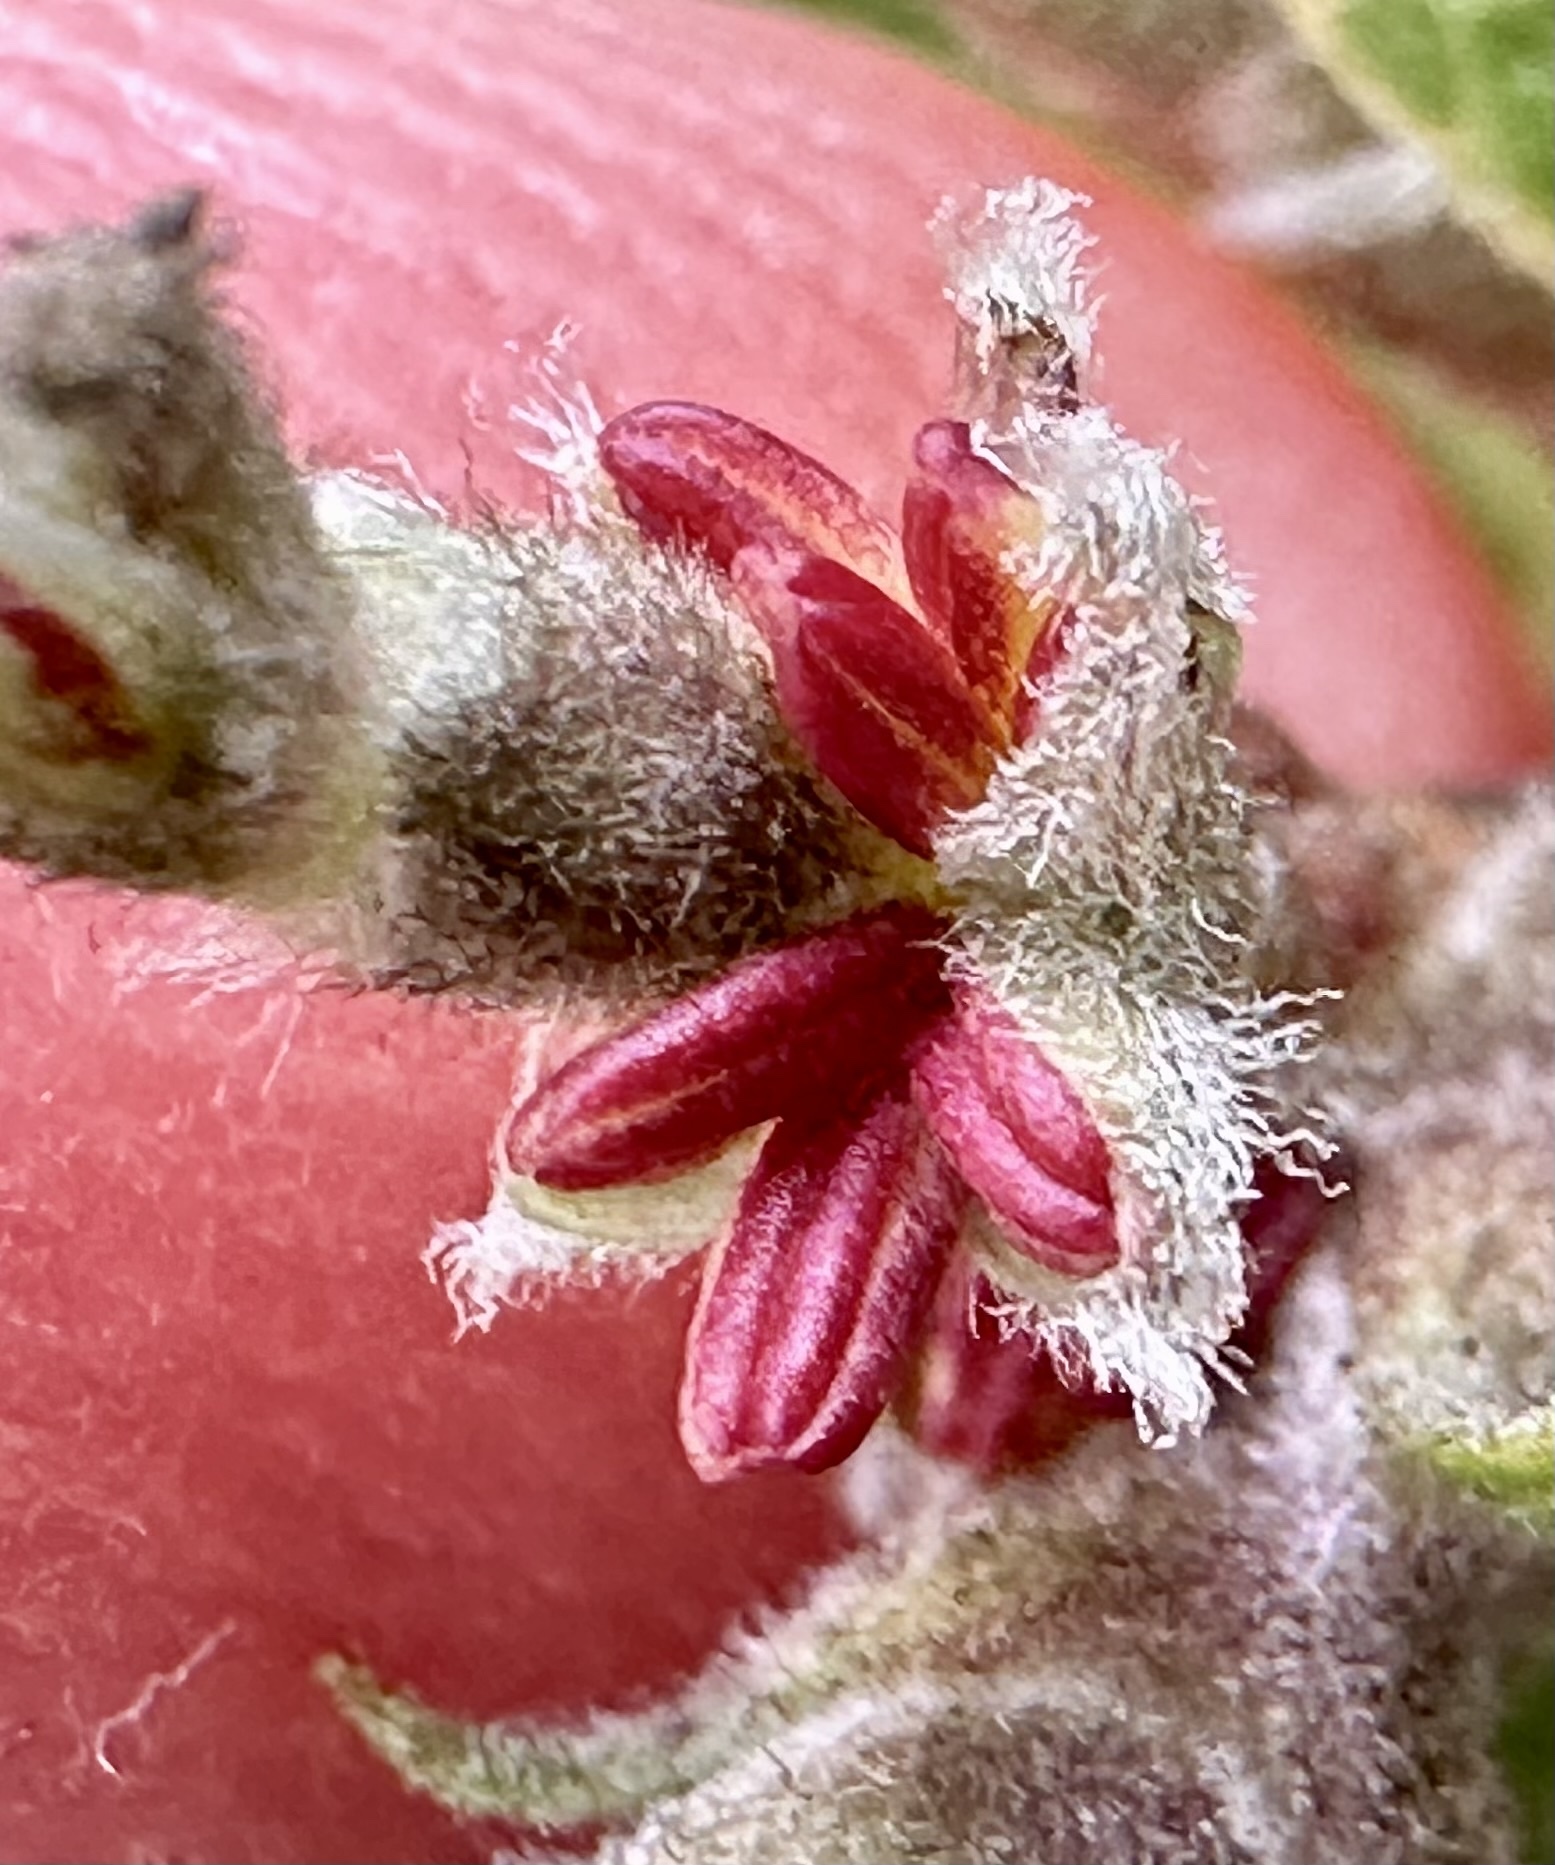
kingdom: Plantae
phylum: Tracheophyta
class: Magnoliopsida
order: Garryales
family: Garryaceae
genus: Garrya
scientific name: Garrya elliptica
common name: Silk-tassel
